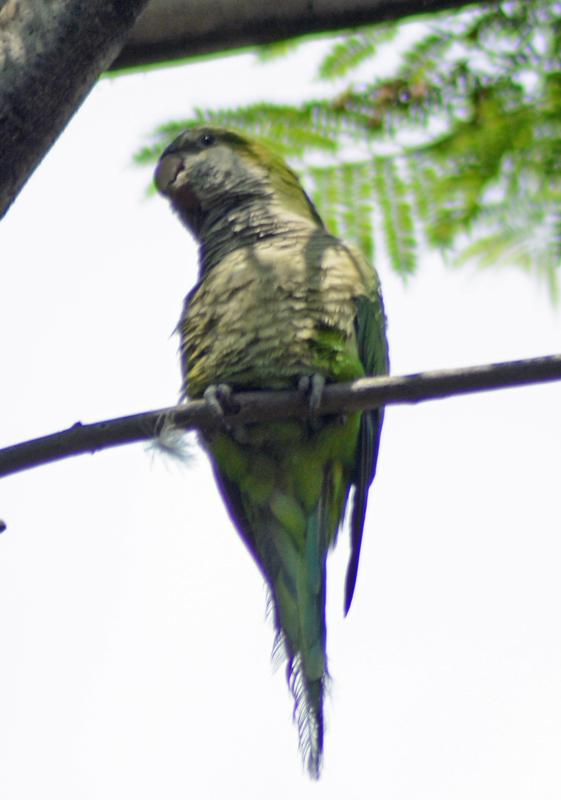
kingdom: Animalia
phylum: Chordata
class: Aves
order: Psittaciformes
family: Psittacidae
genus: Myiopsitta
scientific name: Myiopsitta monachus
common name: Monk parakeet
